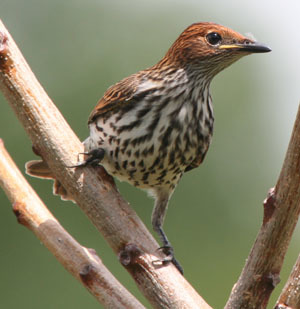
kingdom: Animalia
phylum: Chordata
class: Aves
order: Passeriformes
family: Sturnidae
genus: Cinnyricinclus
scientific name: Cinnyricinclus leucogaster
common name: Violet-backed starling
